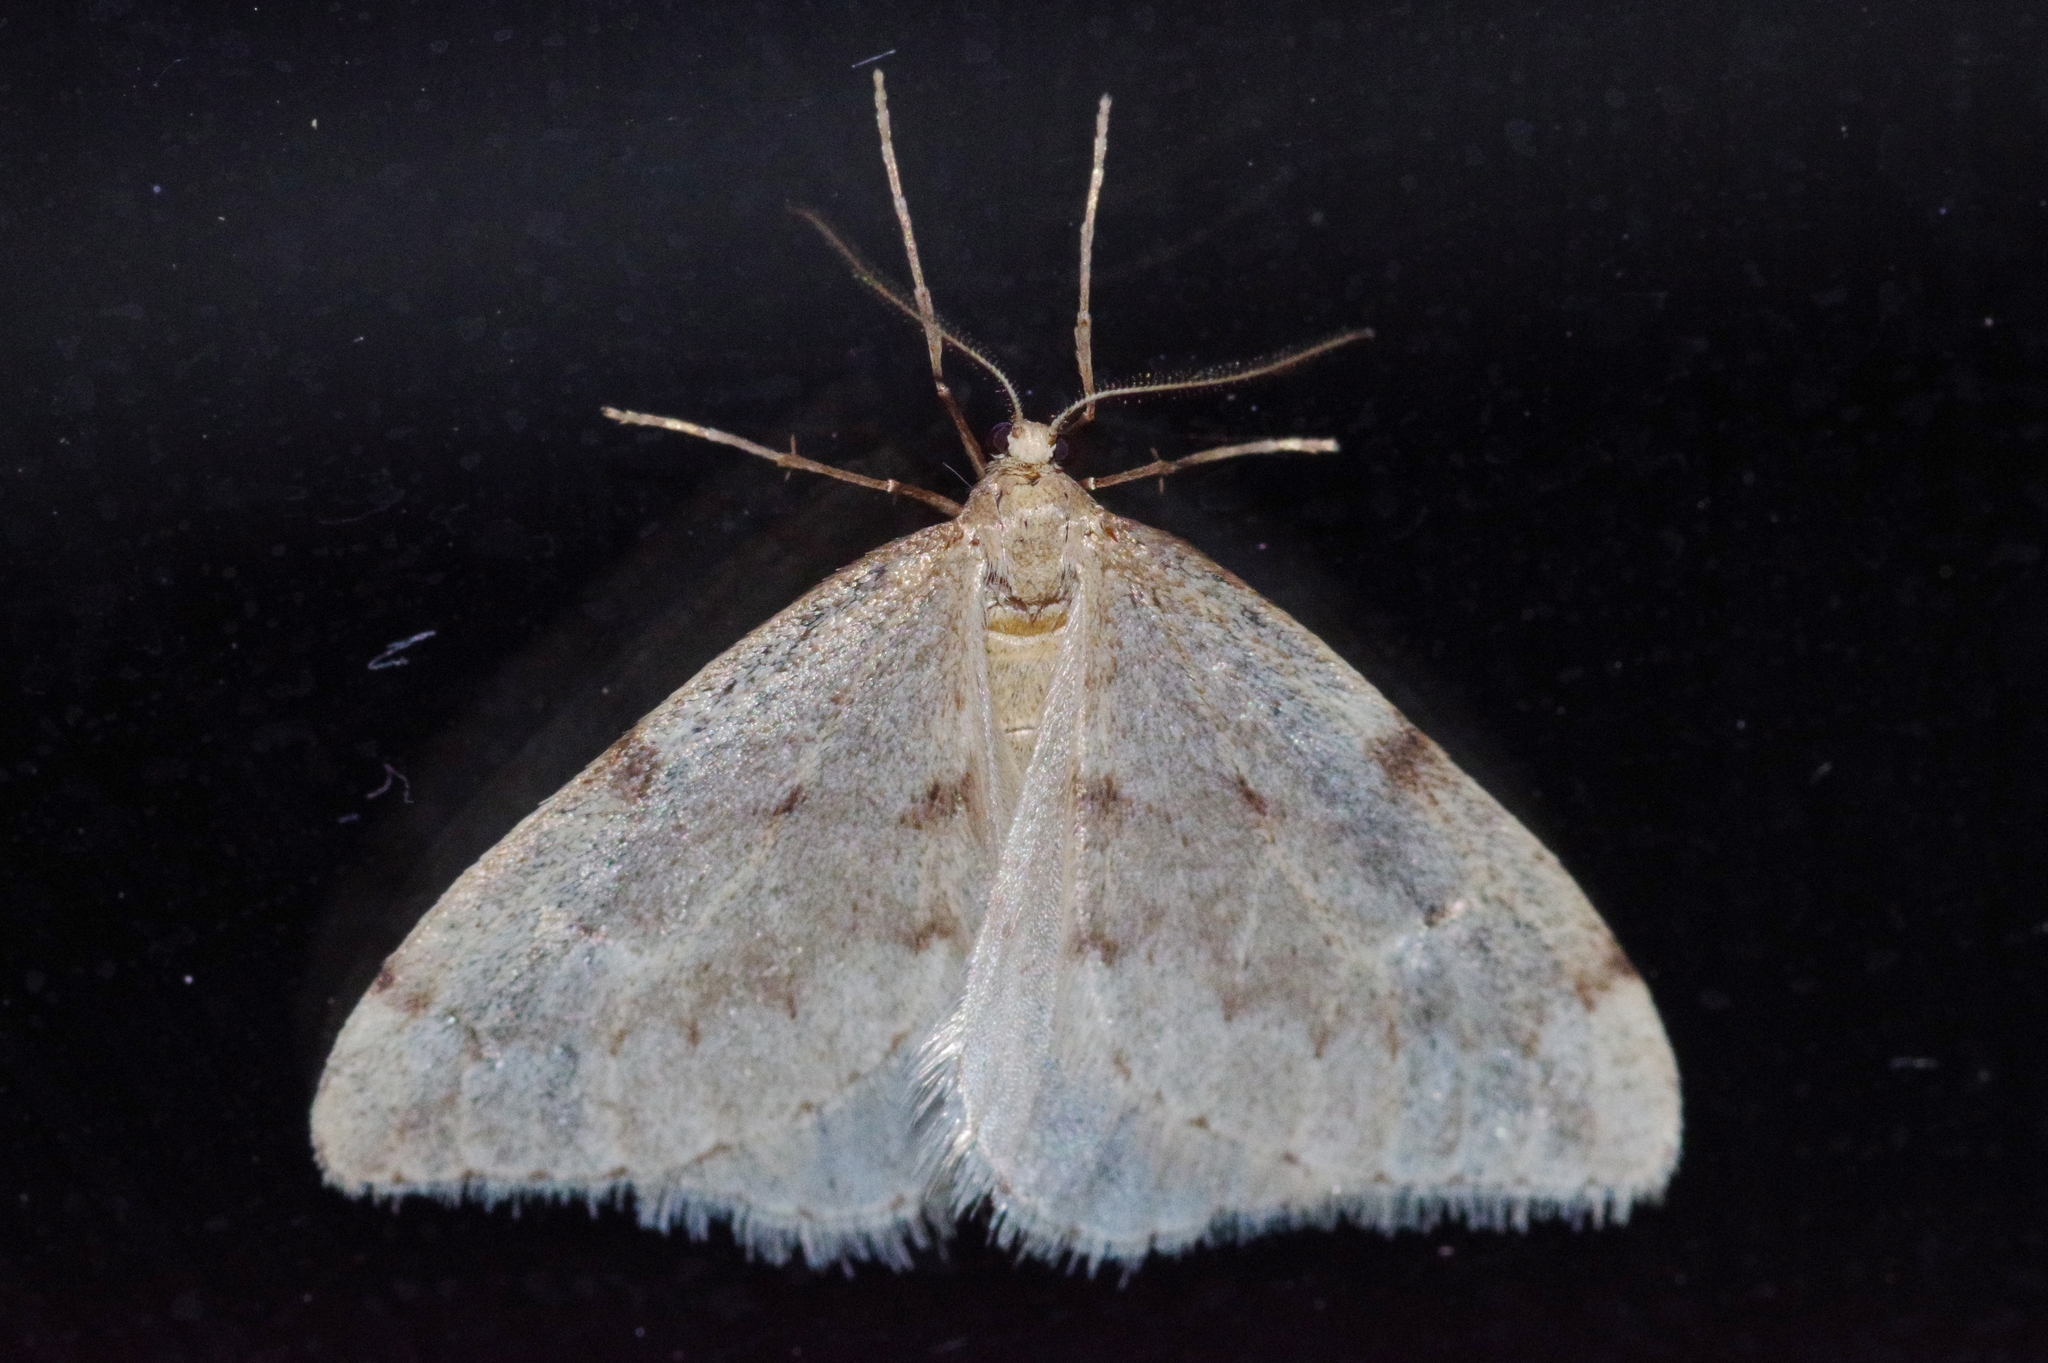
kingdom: Animalia
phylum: Arthropoda
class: Insecta
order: Lepidoptera
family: Geometridae
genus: Inurois
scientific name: Inurois tenuis
